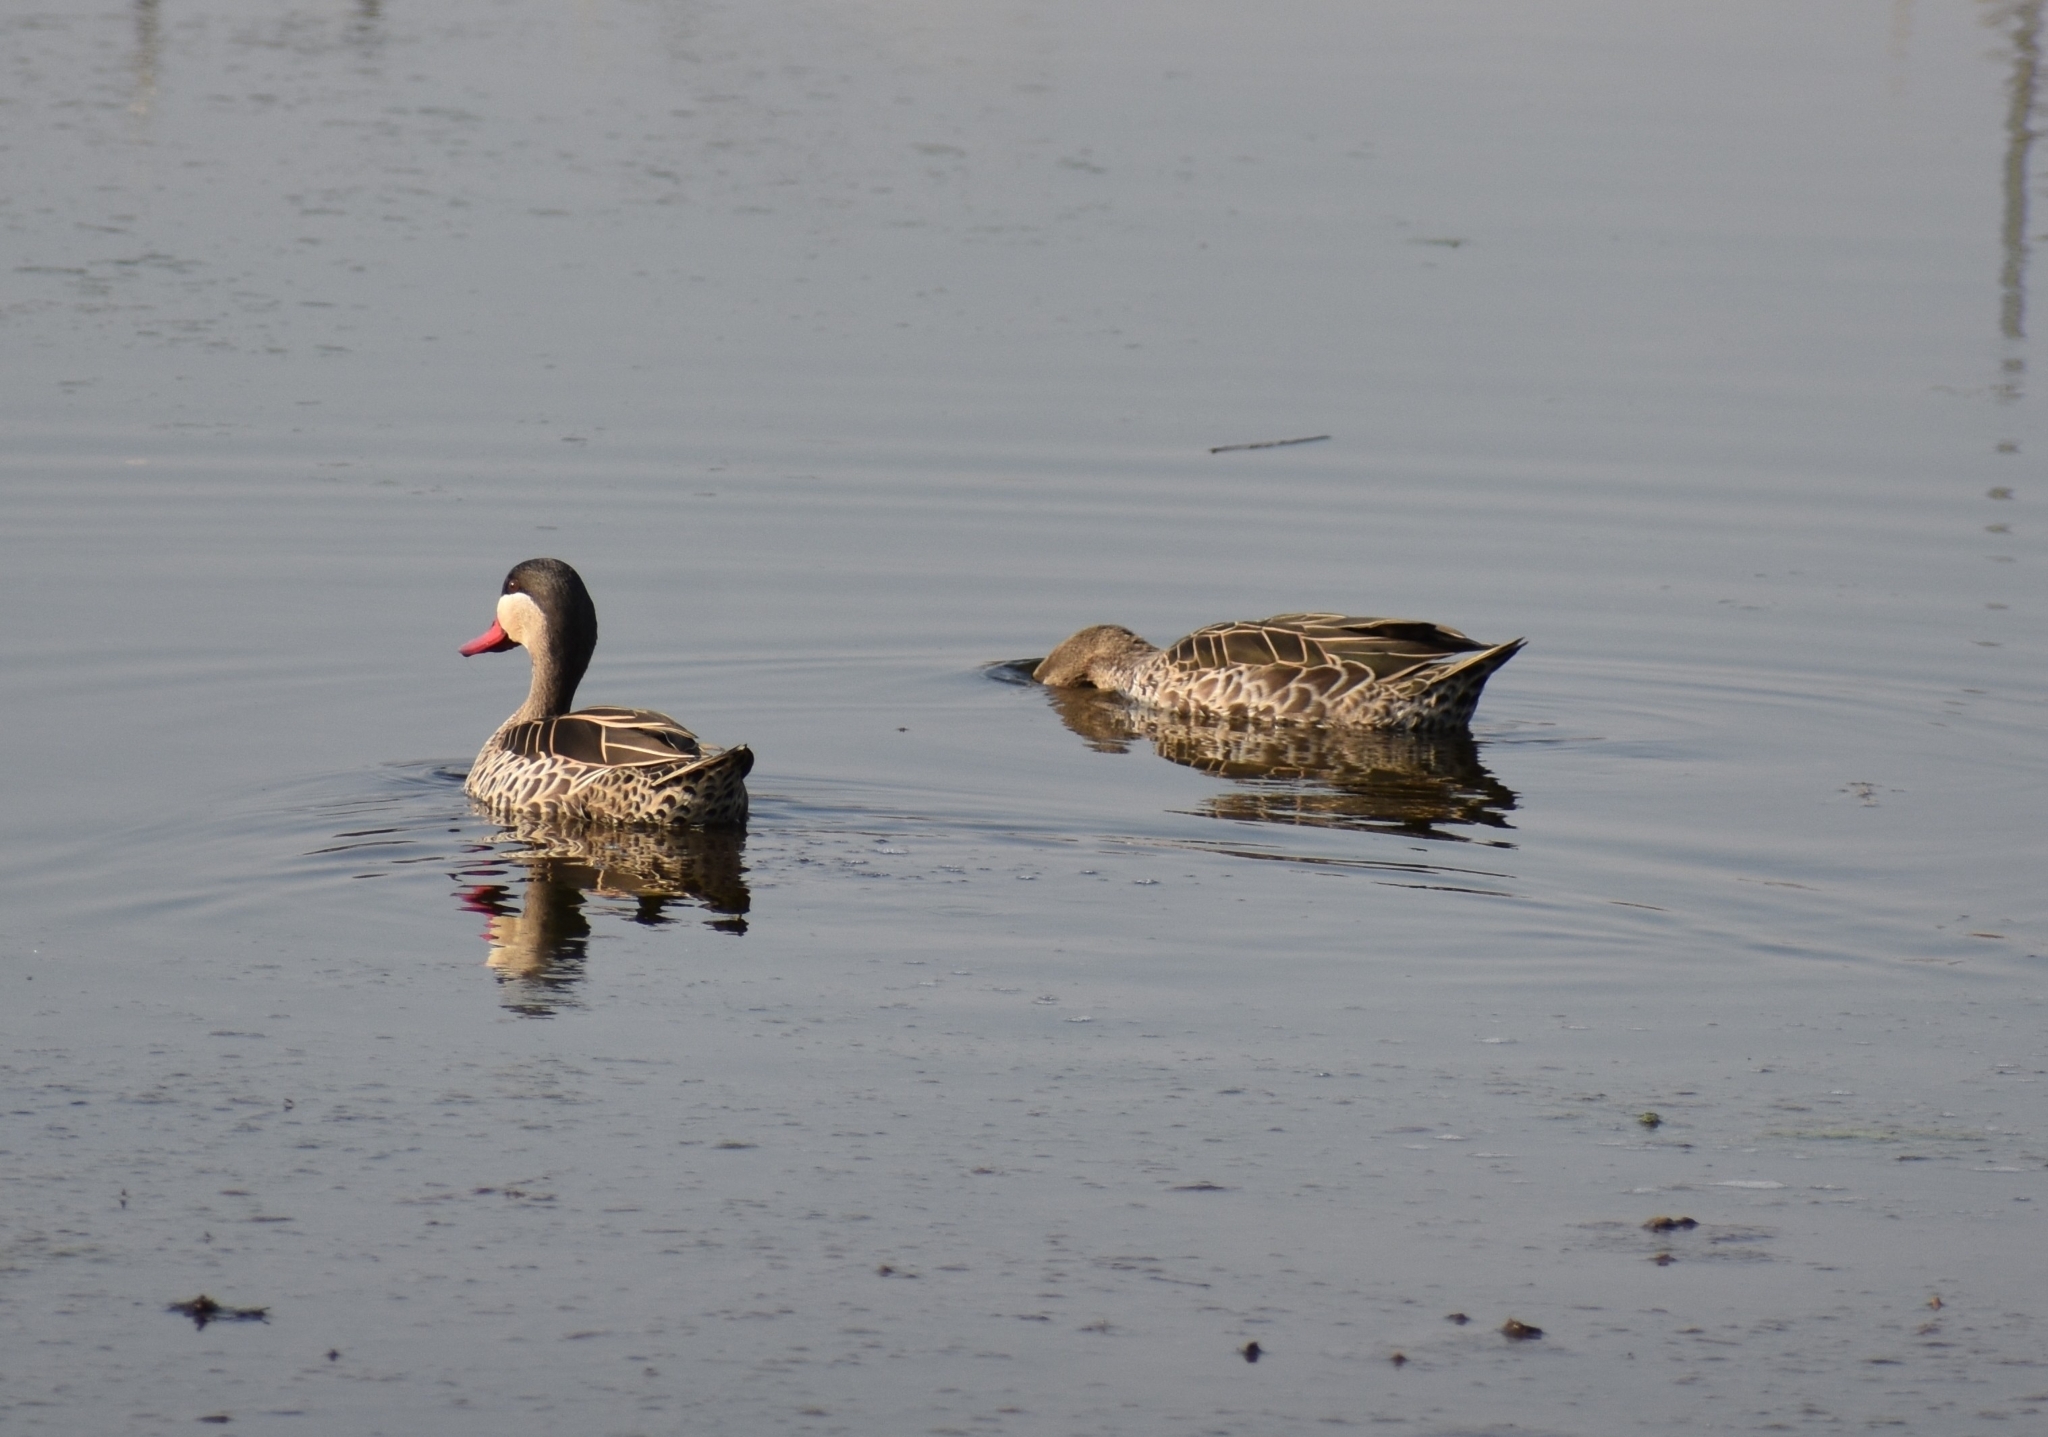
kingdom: Animalia
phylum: Chordata
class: Aves
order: Anseriformes
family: Anatidae
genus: Anas
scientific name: Anas erythrorhyncha
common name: Red-billed teal
